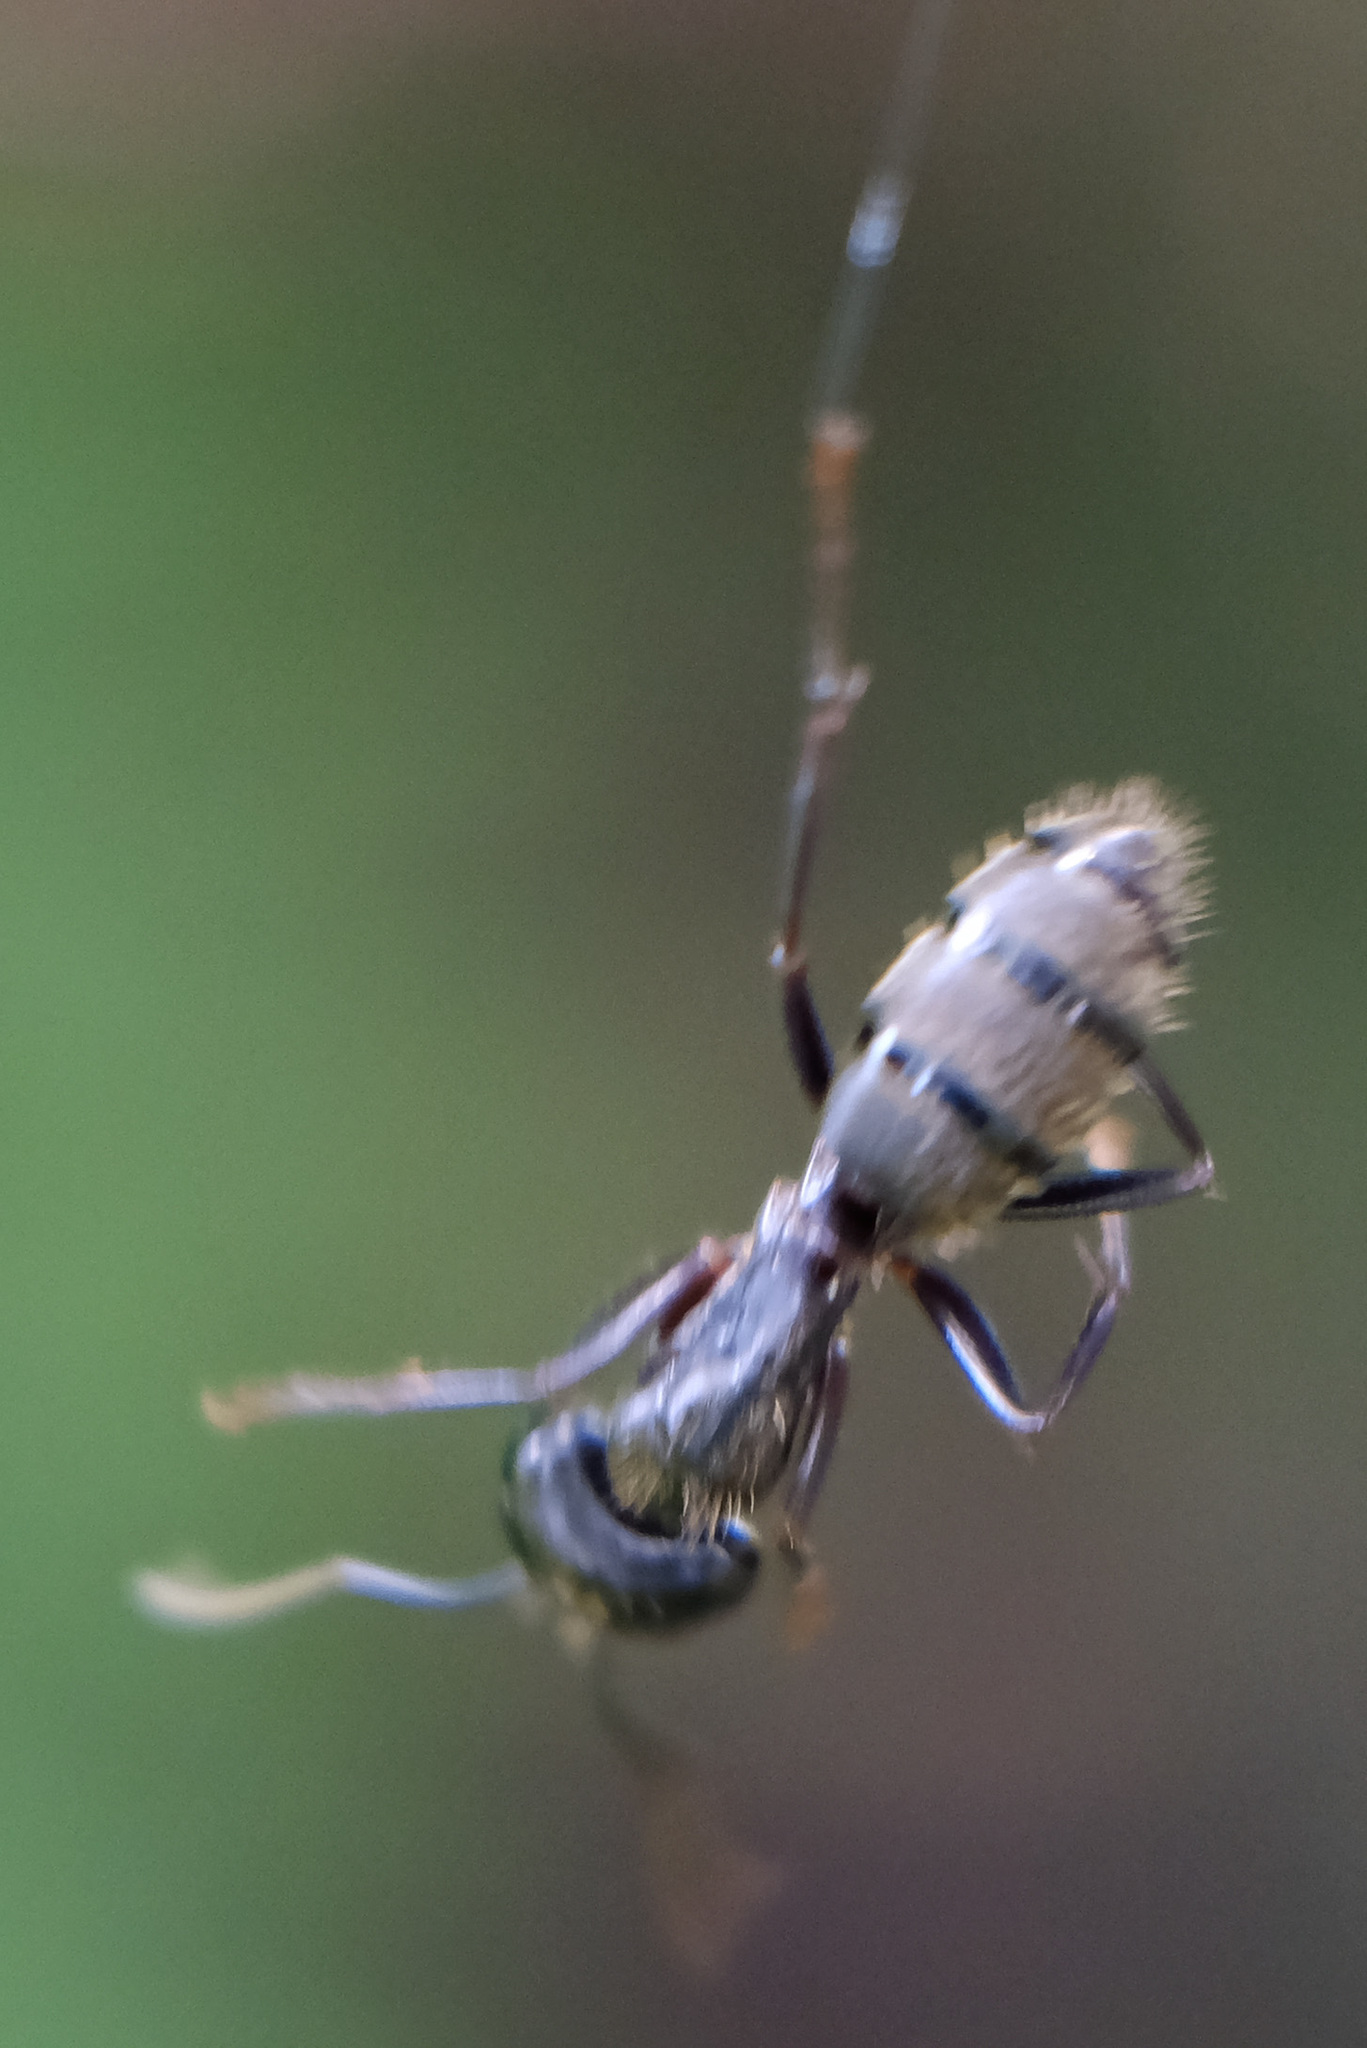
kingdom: Animalia
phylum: Arthropoda
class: Insecta
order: Hymenoptera
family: Formicidae
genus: Camponotus
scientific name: Camponotus pennsylvanicus
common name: Black carpenter ant
